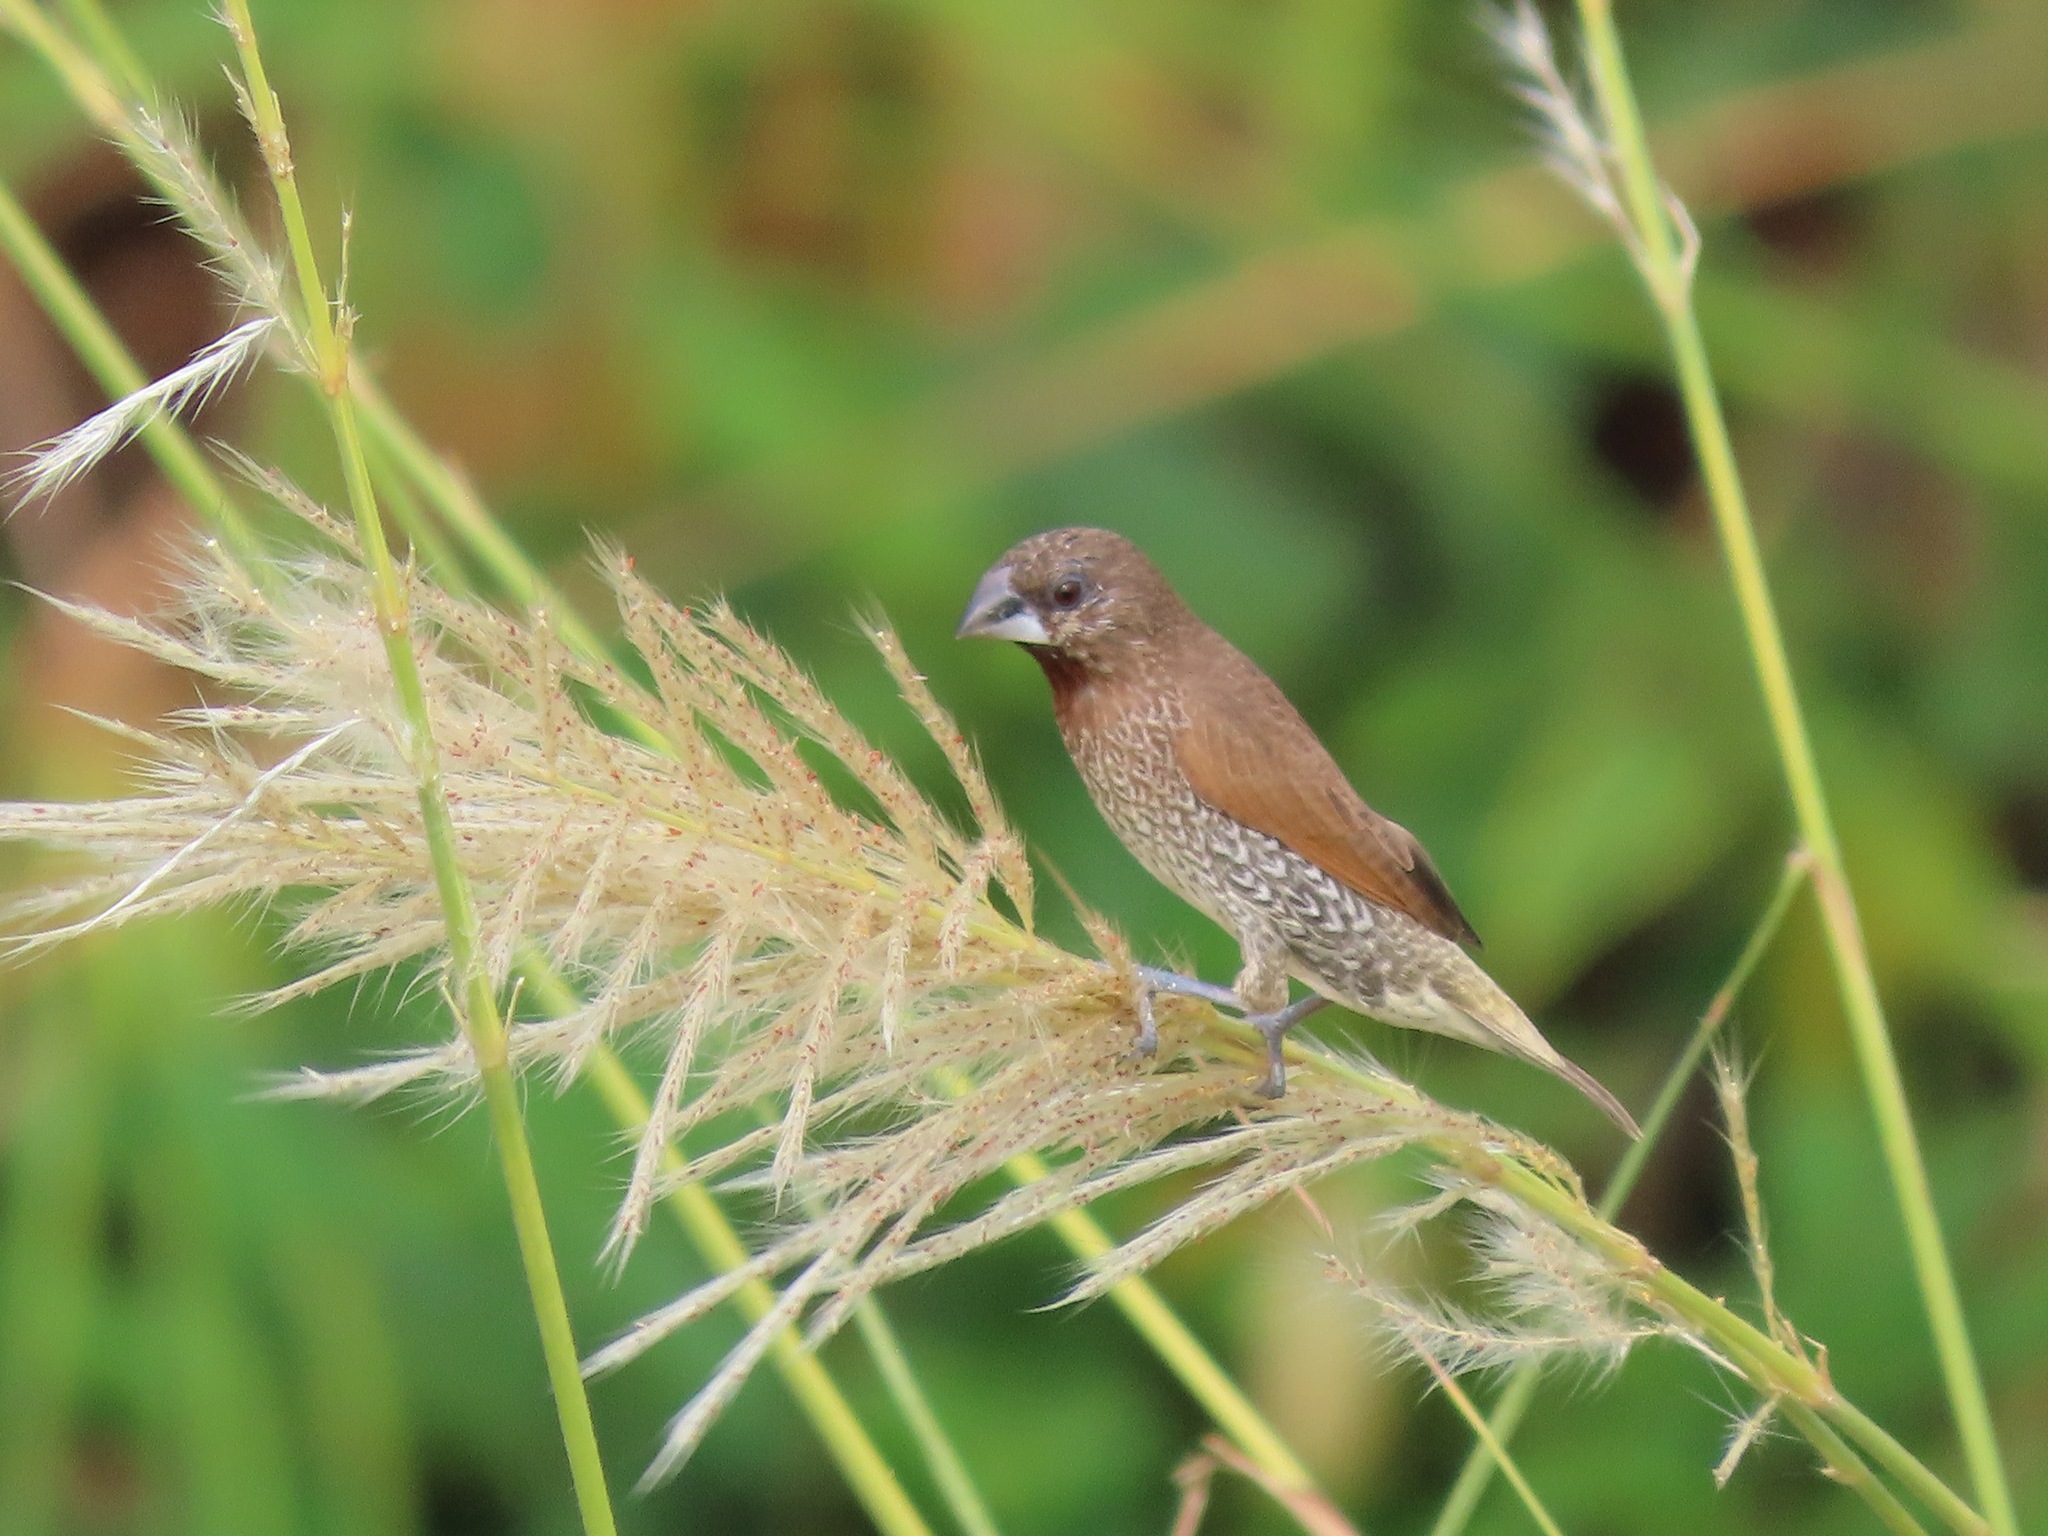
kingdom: Animalia
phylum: Chordata
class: Aves
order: Passeriformes
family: Estrildidae
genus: Lonchura
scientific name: Lonchura punctulata
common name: Scaly-breasted munia
